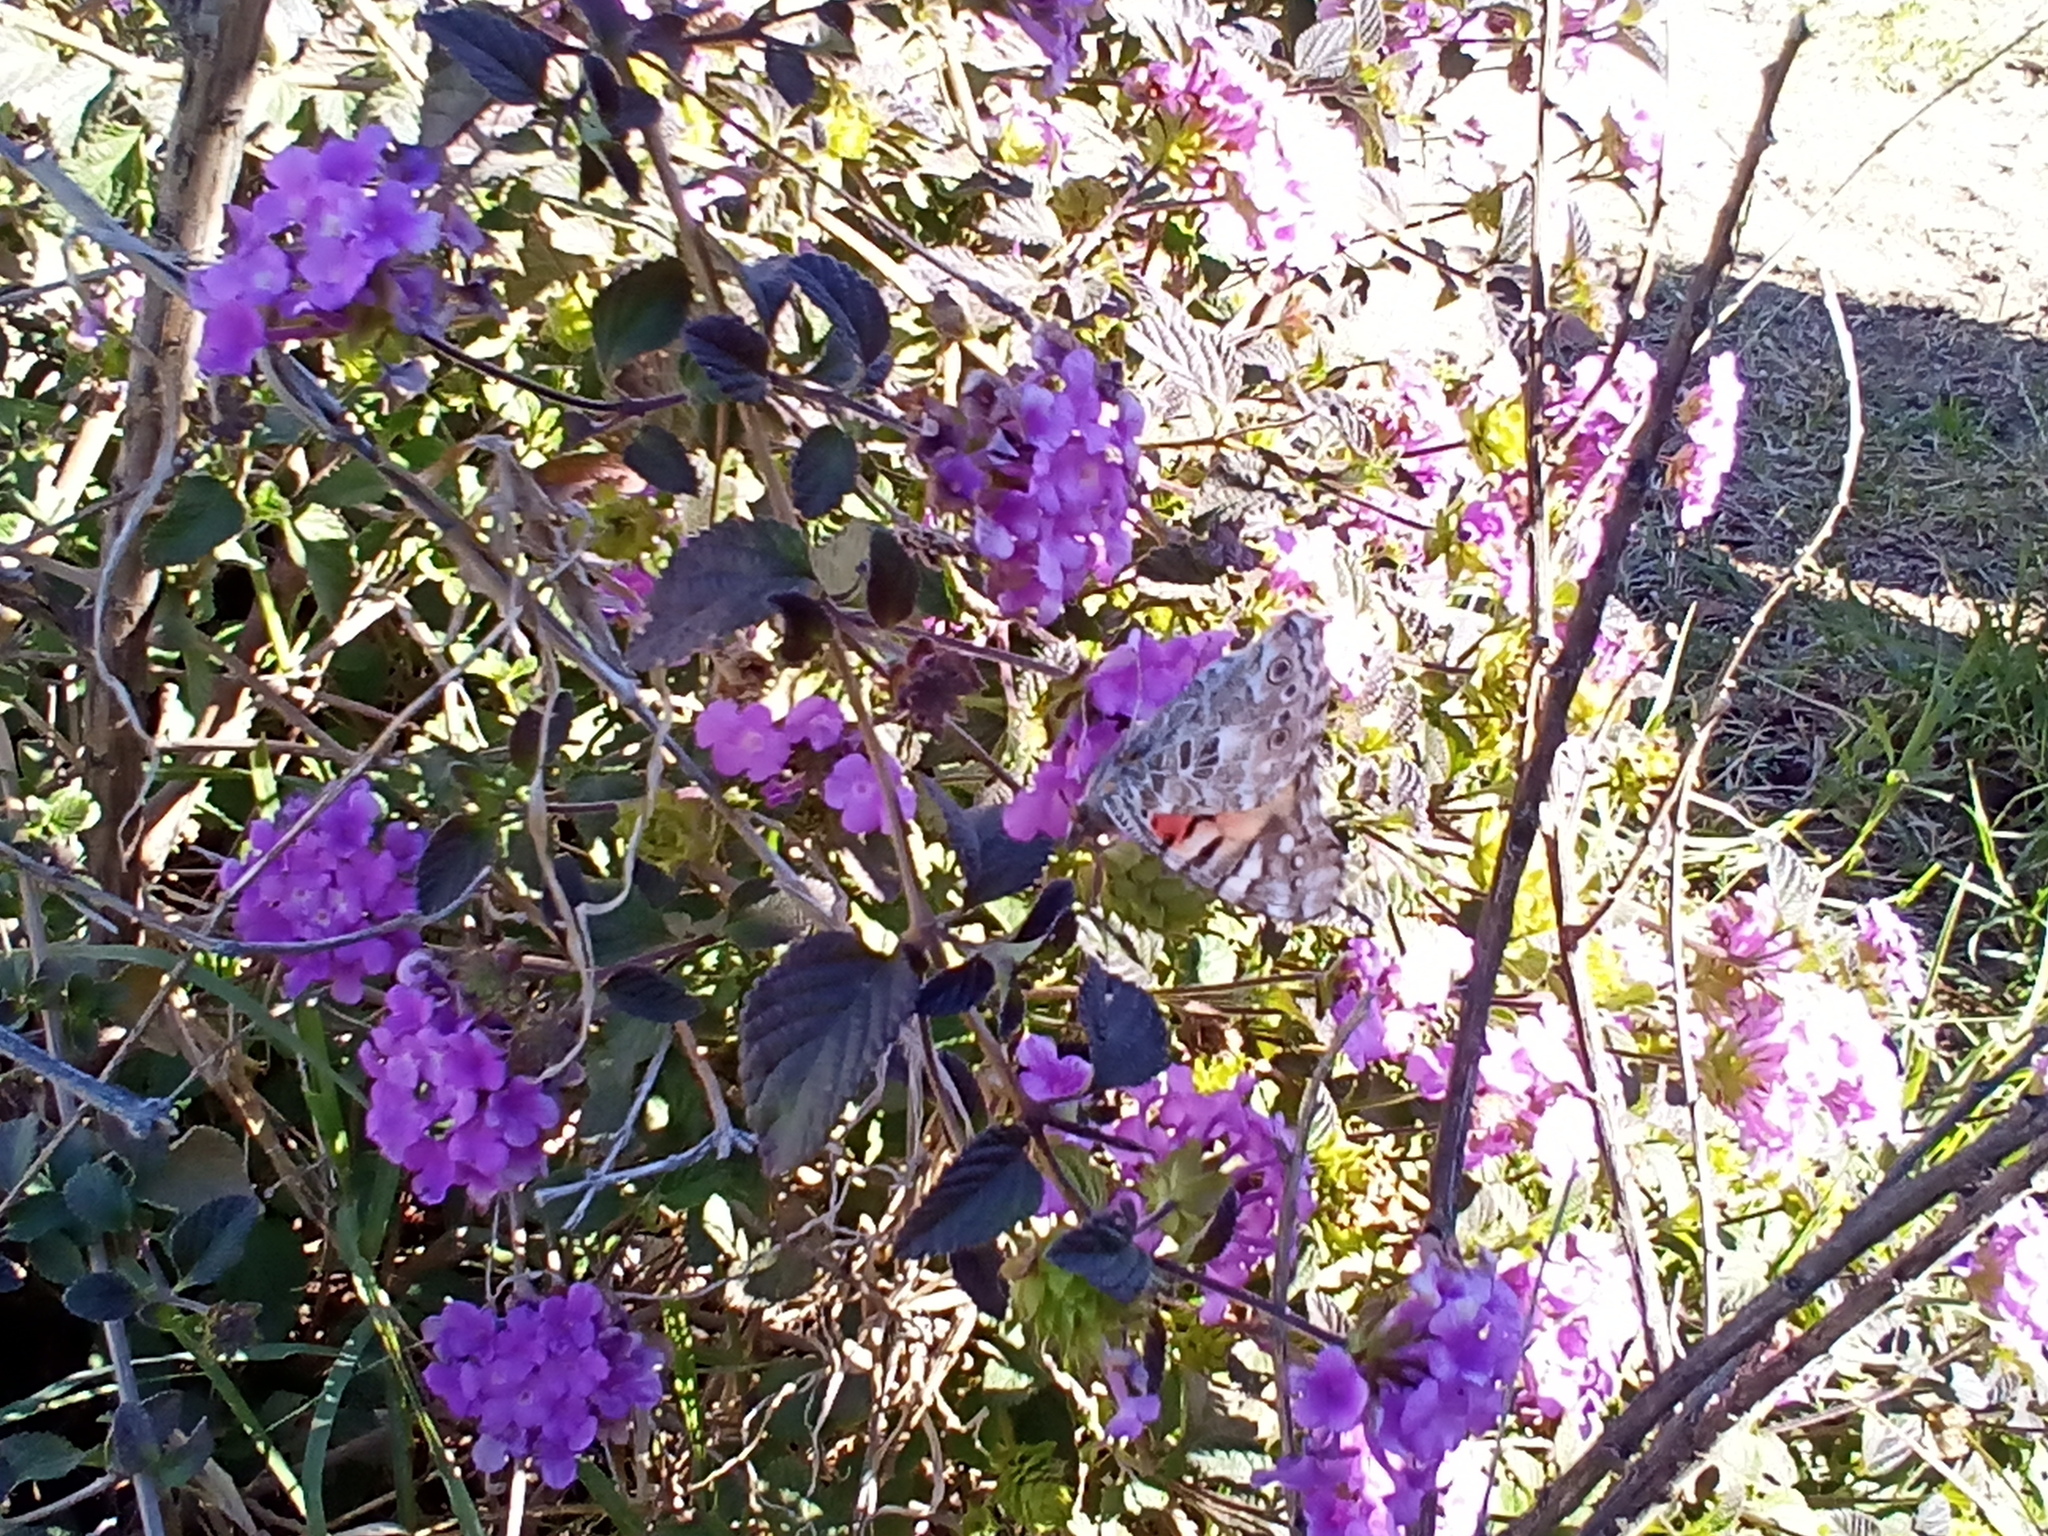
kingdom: Animalia
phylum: Arthropoda
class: Insecta
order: Lepidoptera
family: Nymphalidae
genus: Vanessa
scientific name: Vanessa cardui
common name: Painted lady
